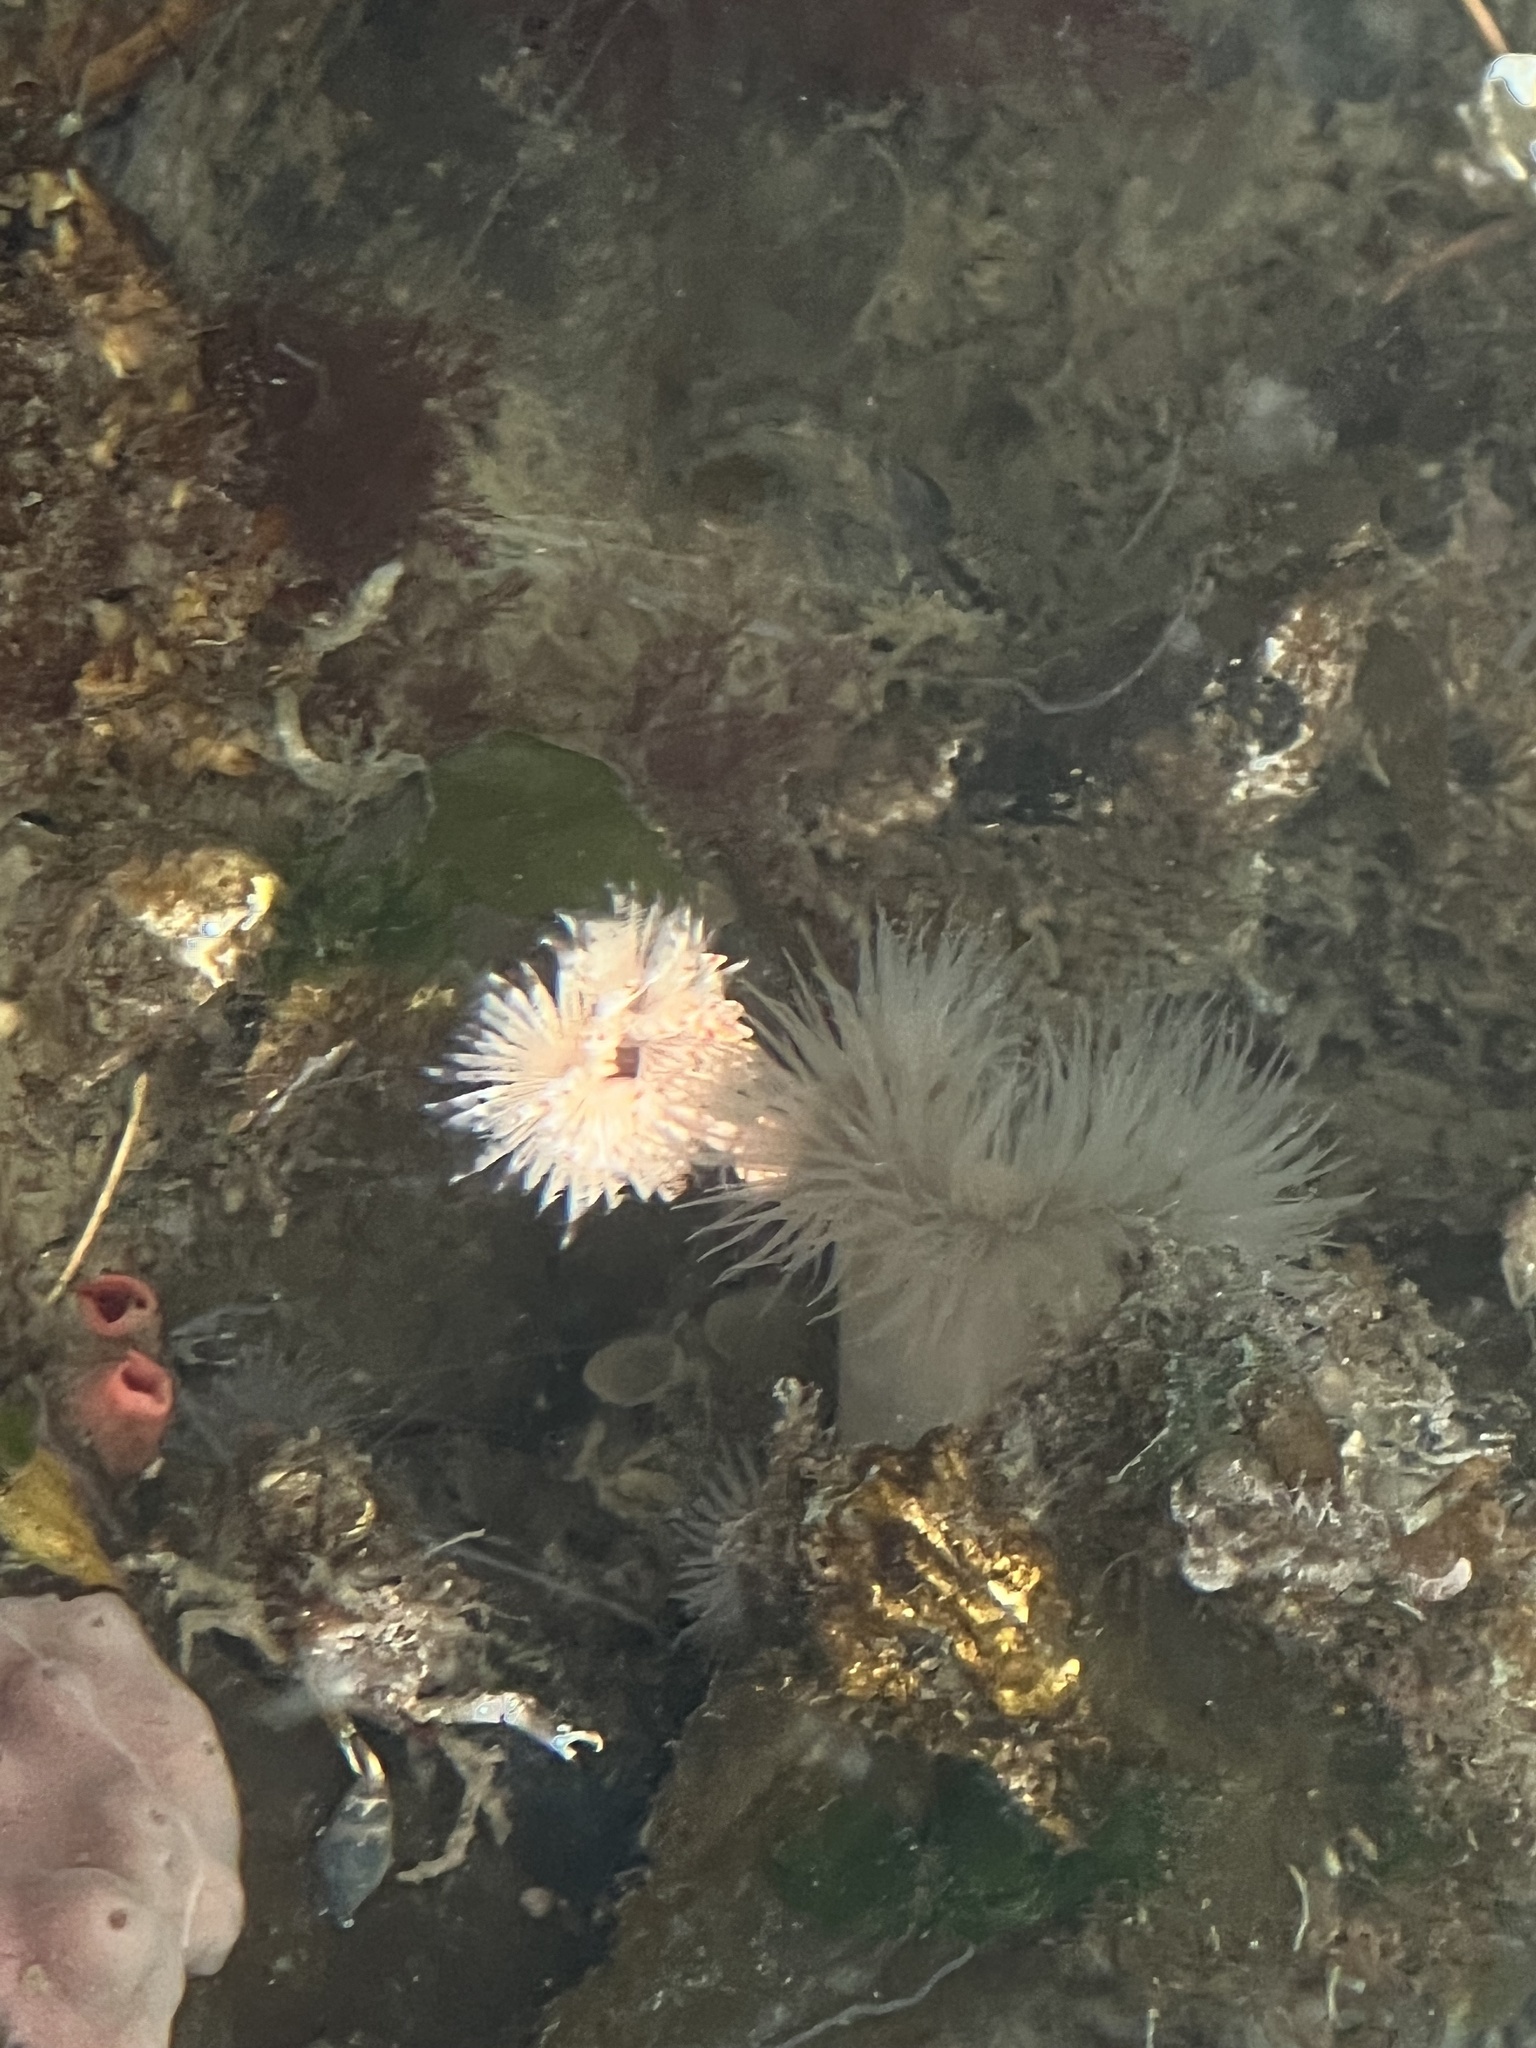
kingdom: Animalia
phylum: Annelida
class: Polychaeta
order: Sabellida
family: Serpulidae
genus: Serpula
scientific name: Serpula columbiana
